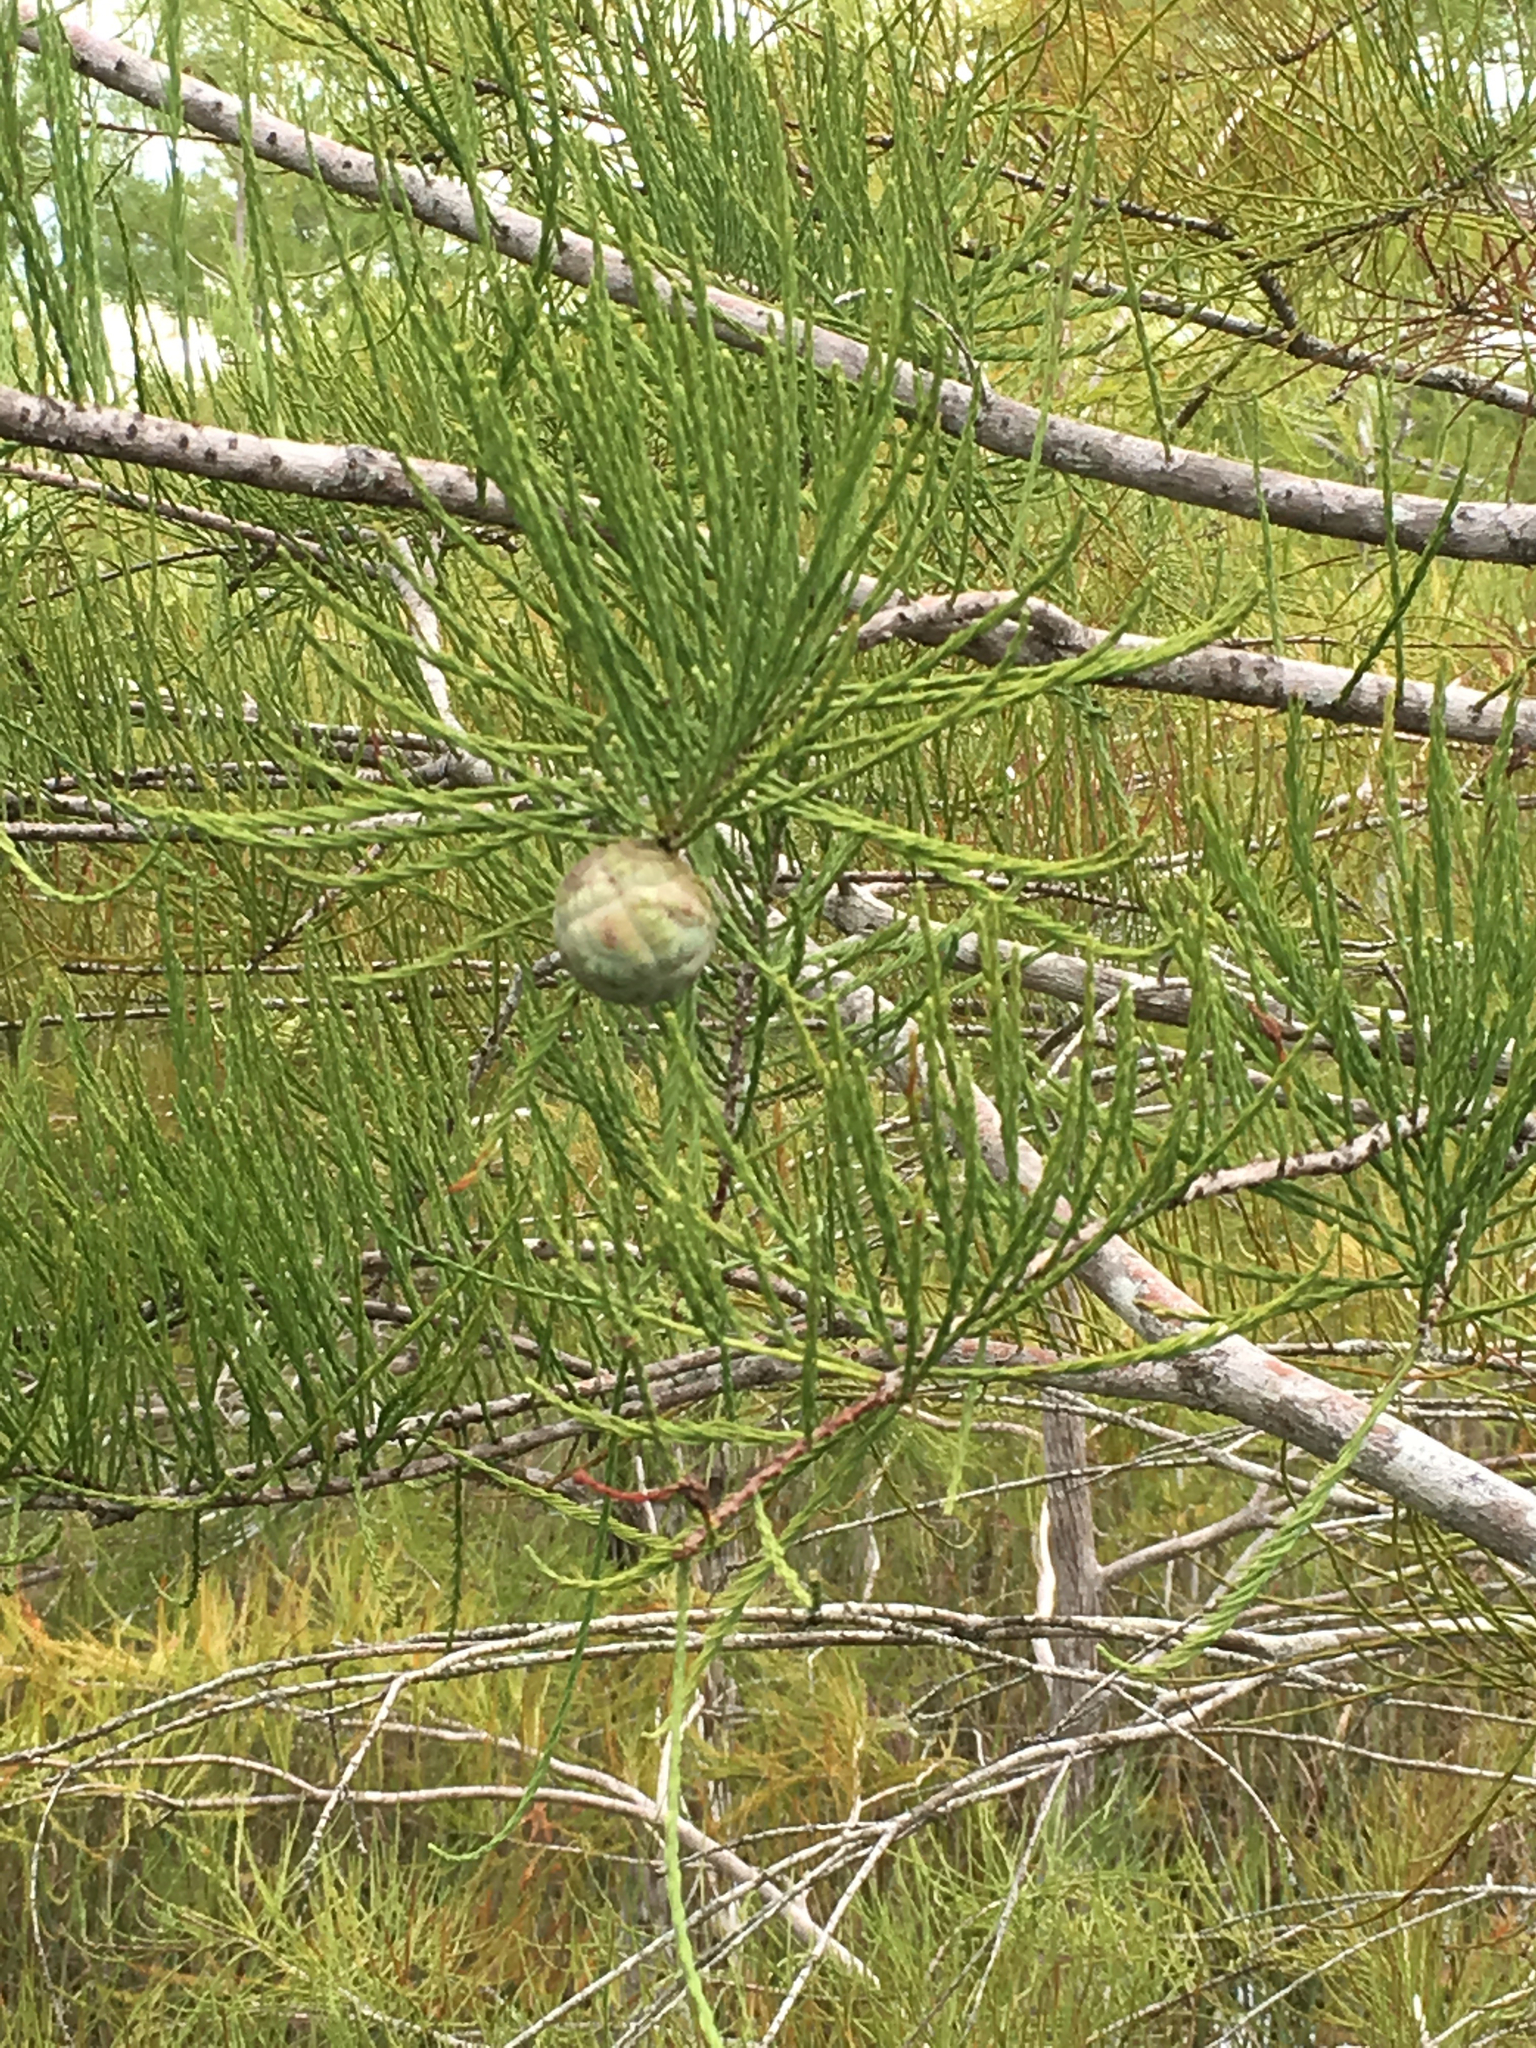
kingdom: Plantae
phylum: Tracheophyta
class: Pinopsida
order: Pinales
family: Cupressaceae
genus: Taxodium
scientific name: Taxodium distichum
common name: Bald cypress
